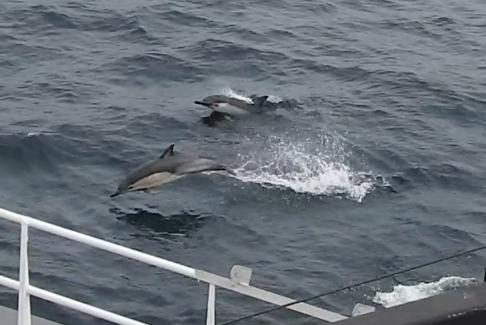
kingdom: Animalia
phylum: Chordata
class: Mammalia
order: Cetacea
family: Delphinidae
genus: Delphinus
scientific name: Delphinus delphis
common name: Common dolphin
